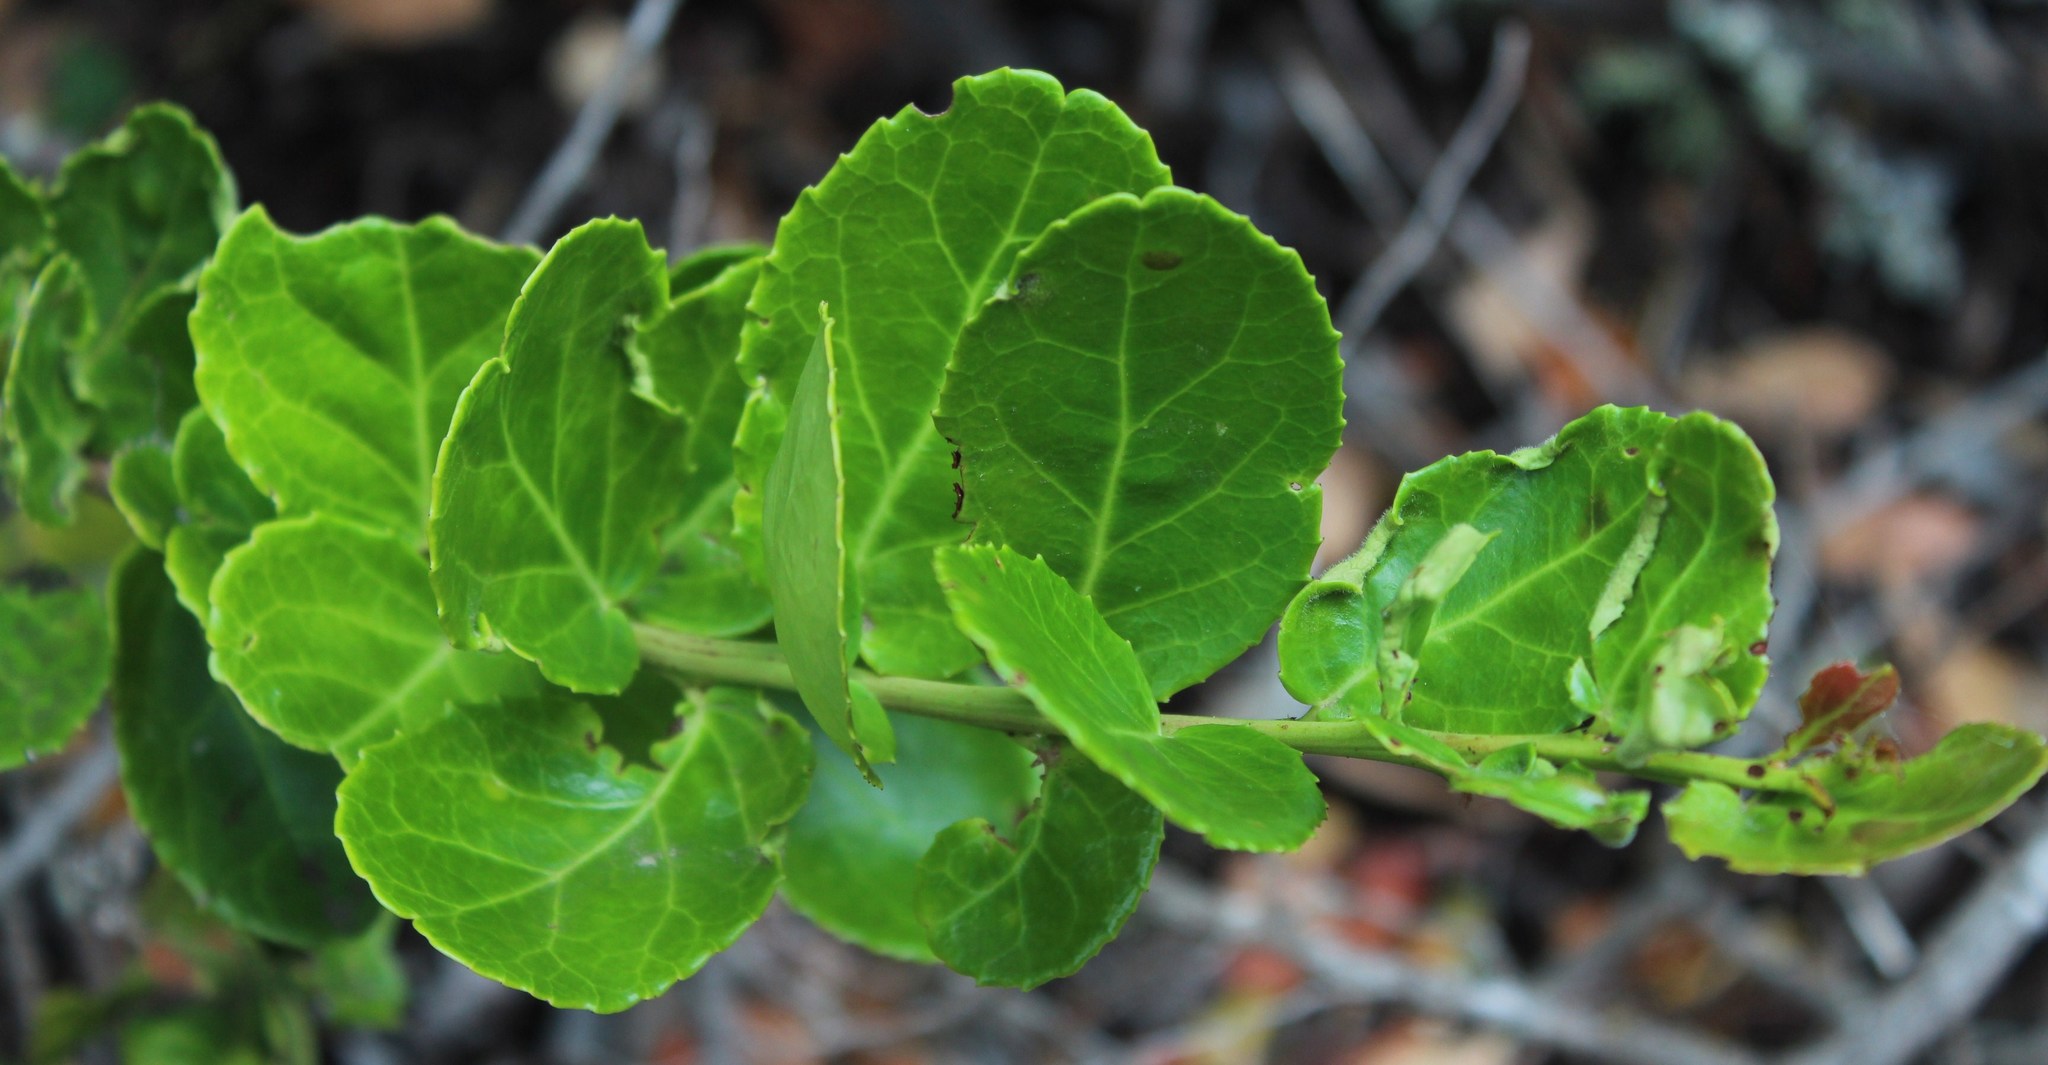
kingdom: Plantae
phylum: Tracheophyta
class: Magnoliopsida
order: Celastrales
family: Celastraceae
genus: Mystroxylon
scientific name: Mystroxylon aethiopicum
